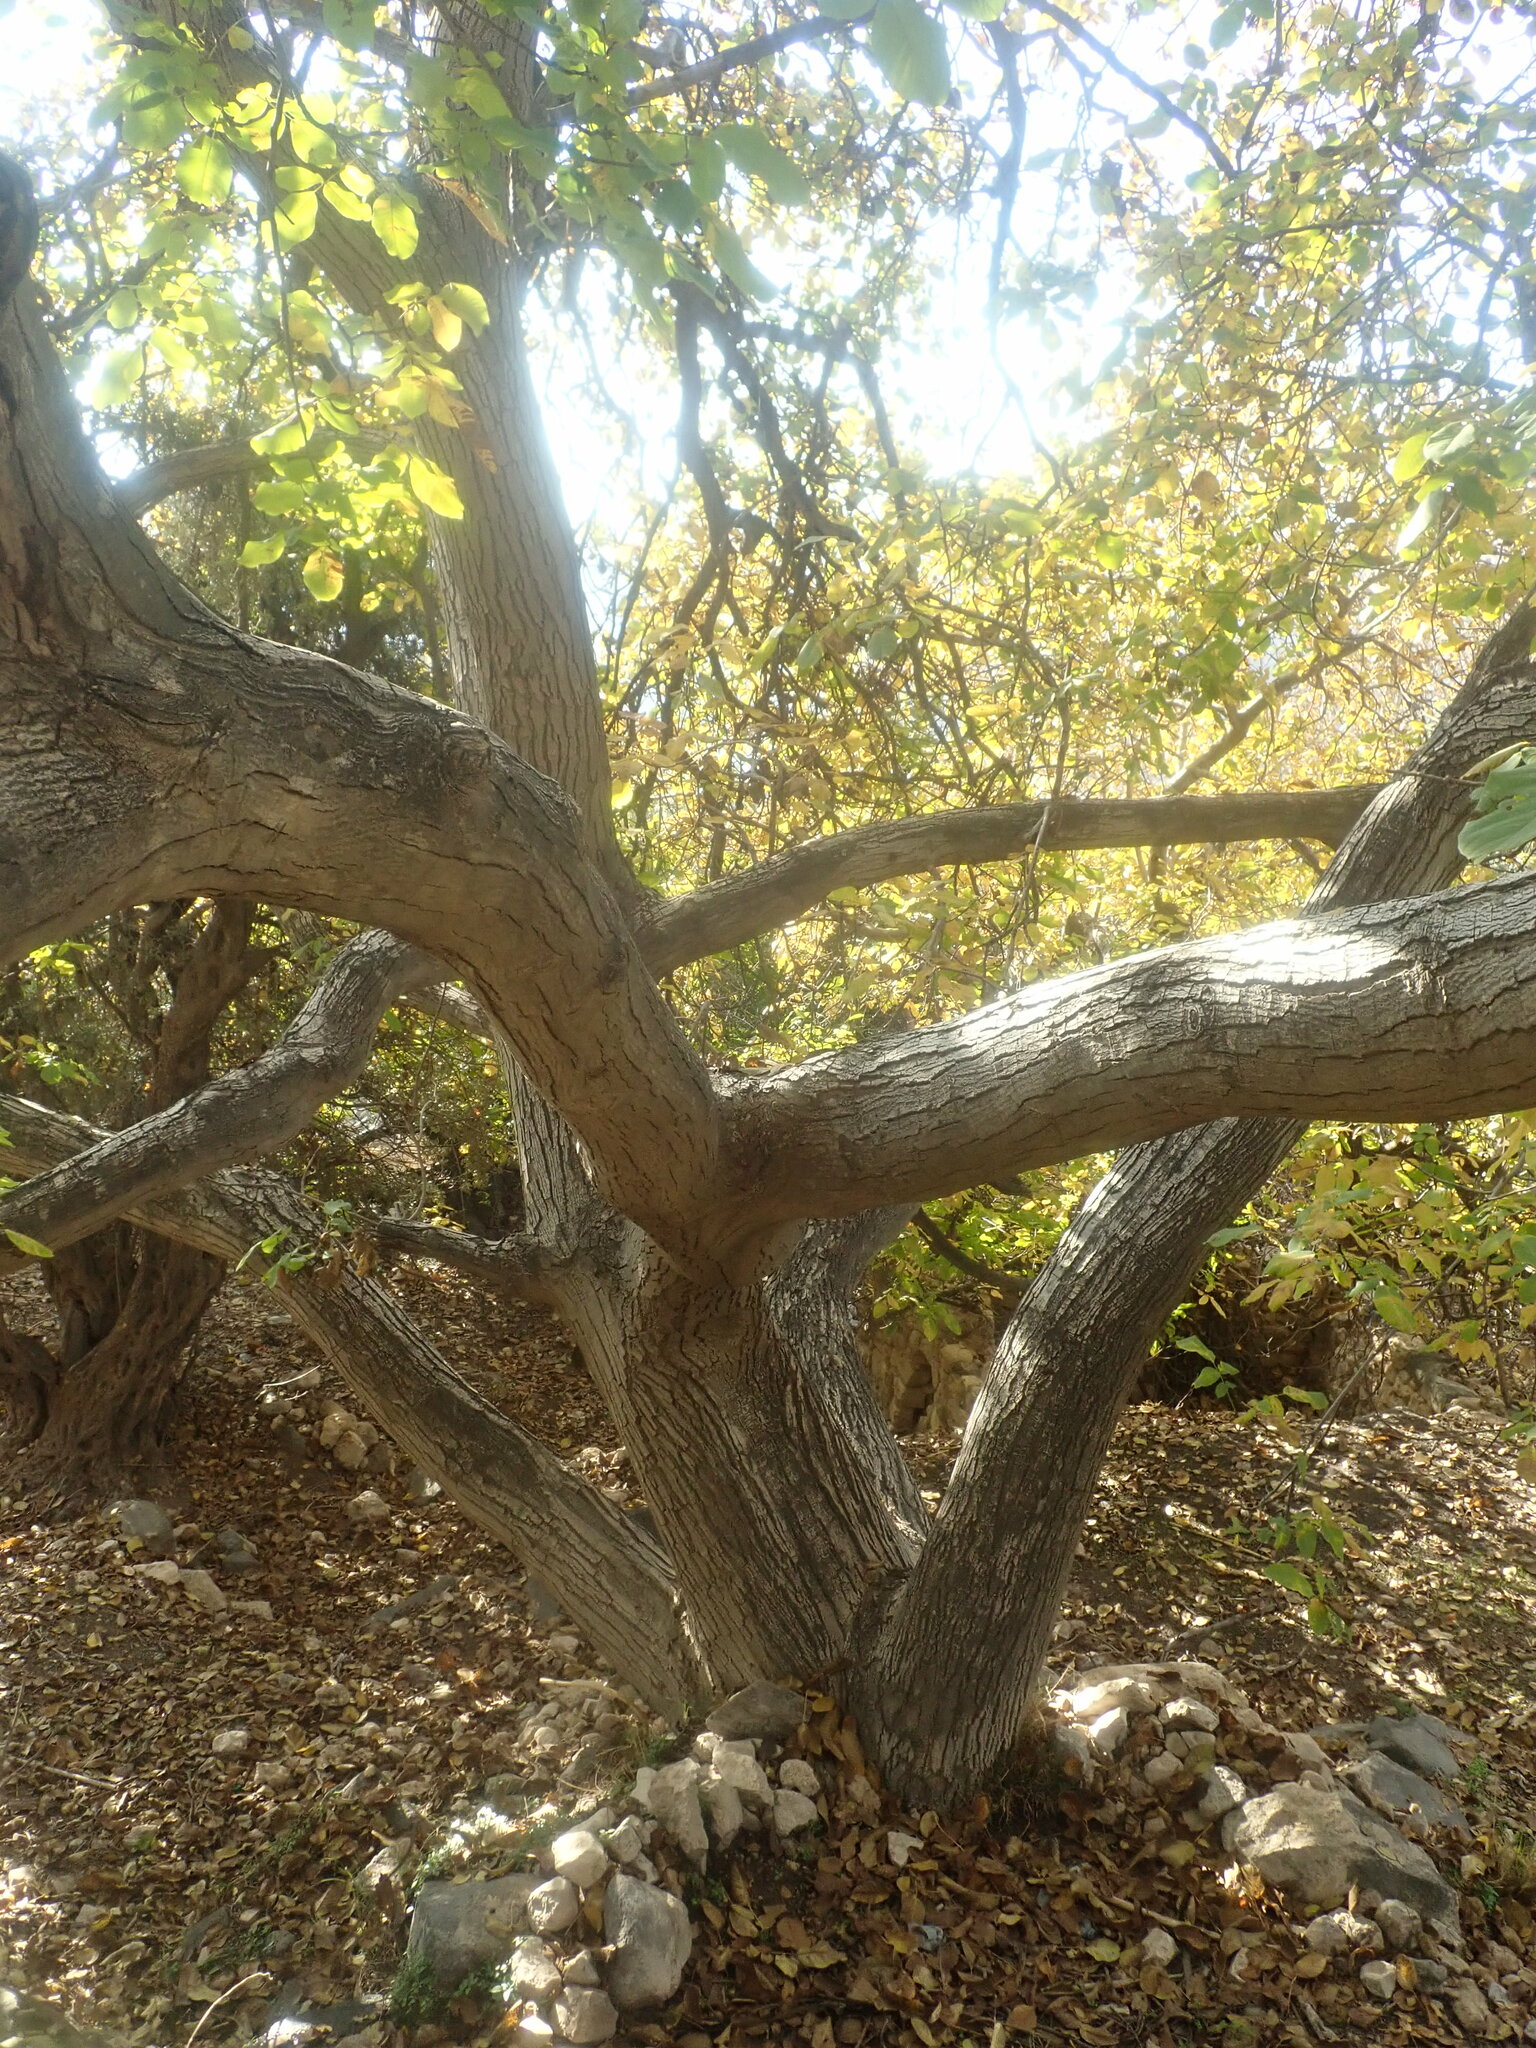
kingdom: Plantae
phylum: Tracheophyta
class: Magnoliopsida
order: Fagales
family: Juglandaceae
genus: Juglans
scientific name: Juglans regia
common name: Walnut
